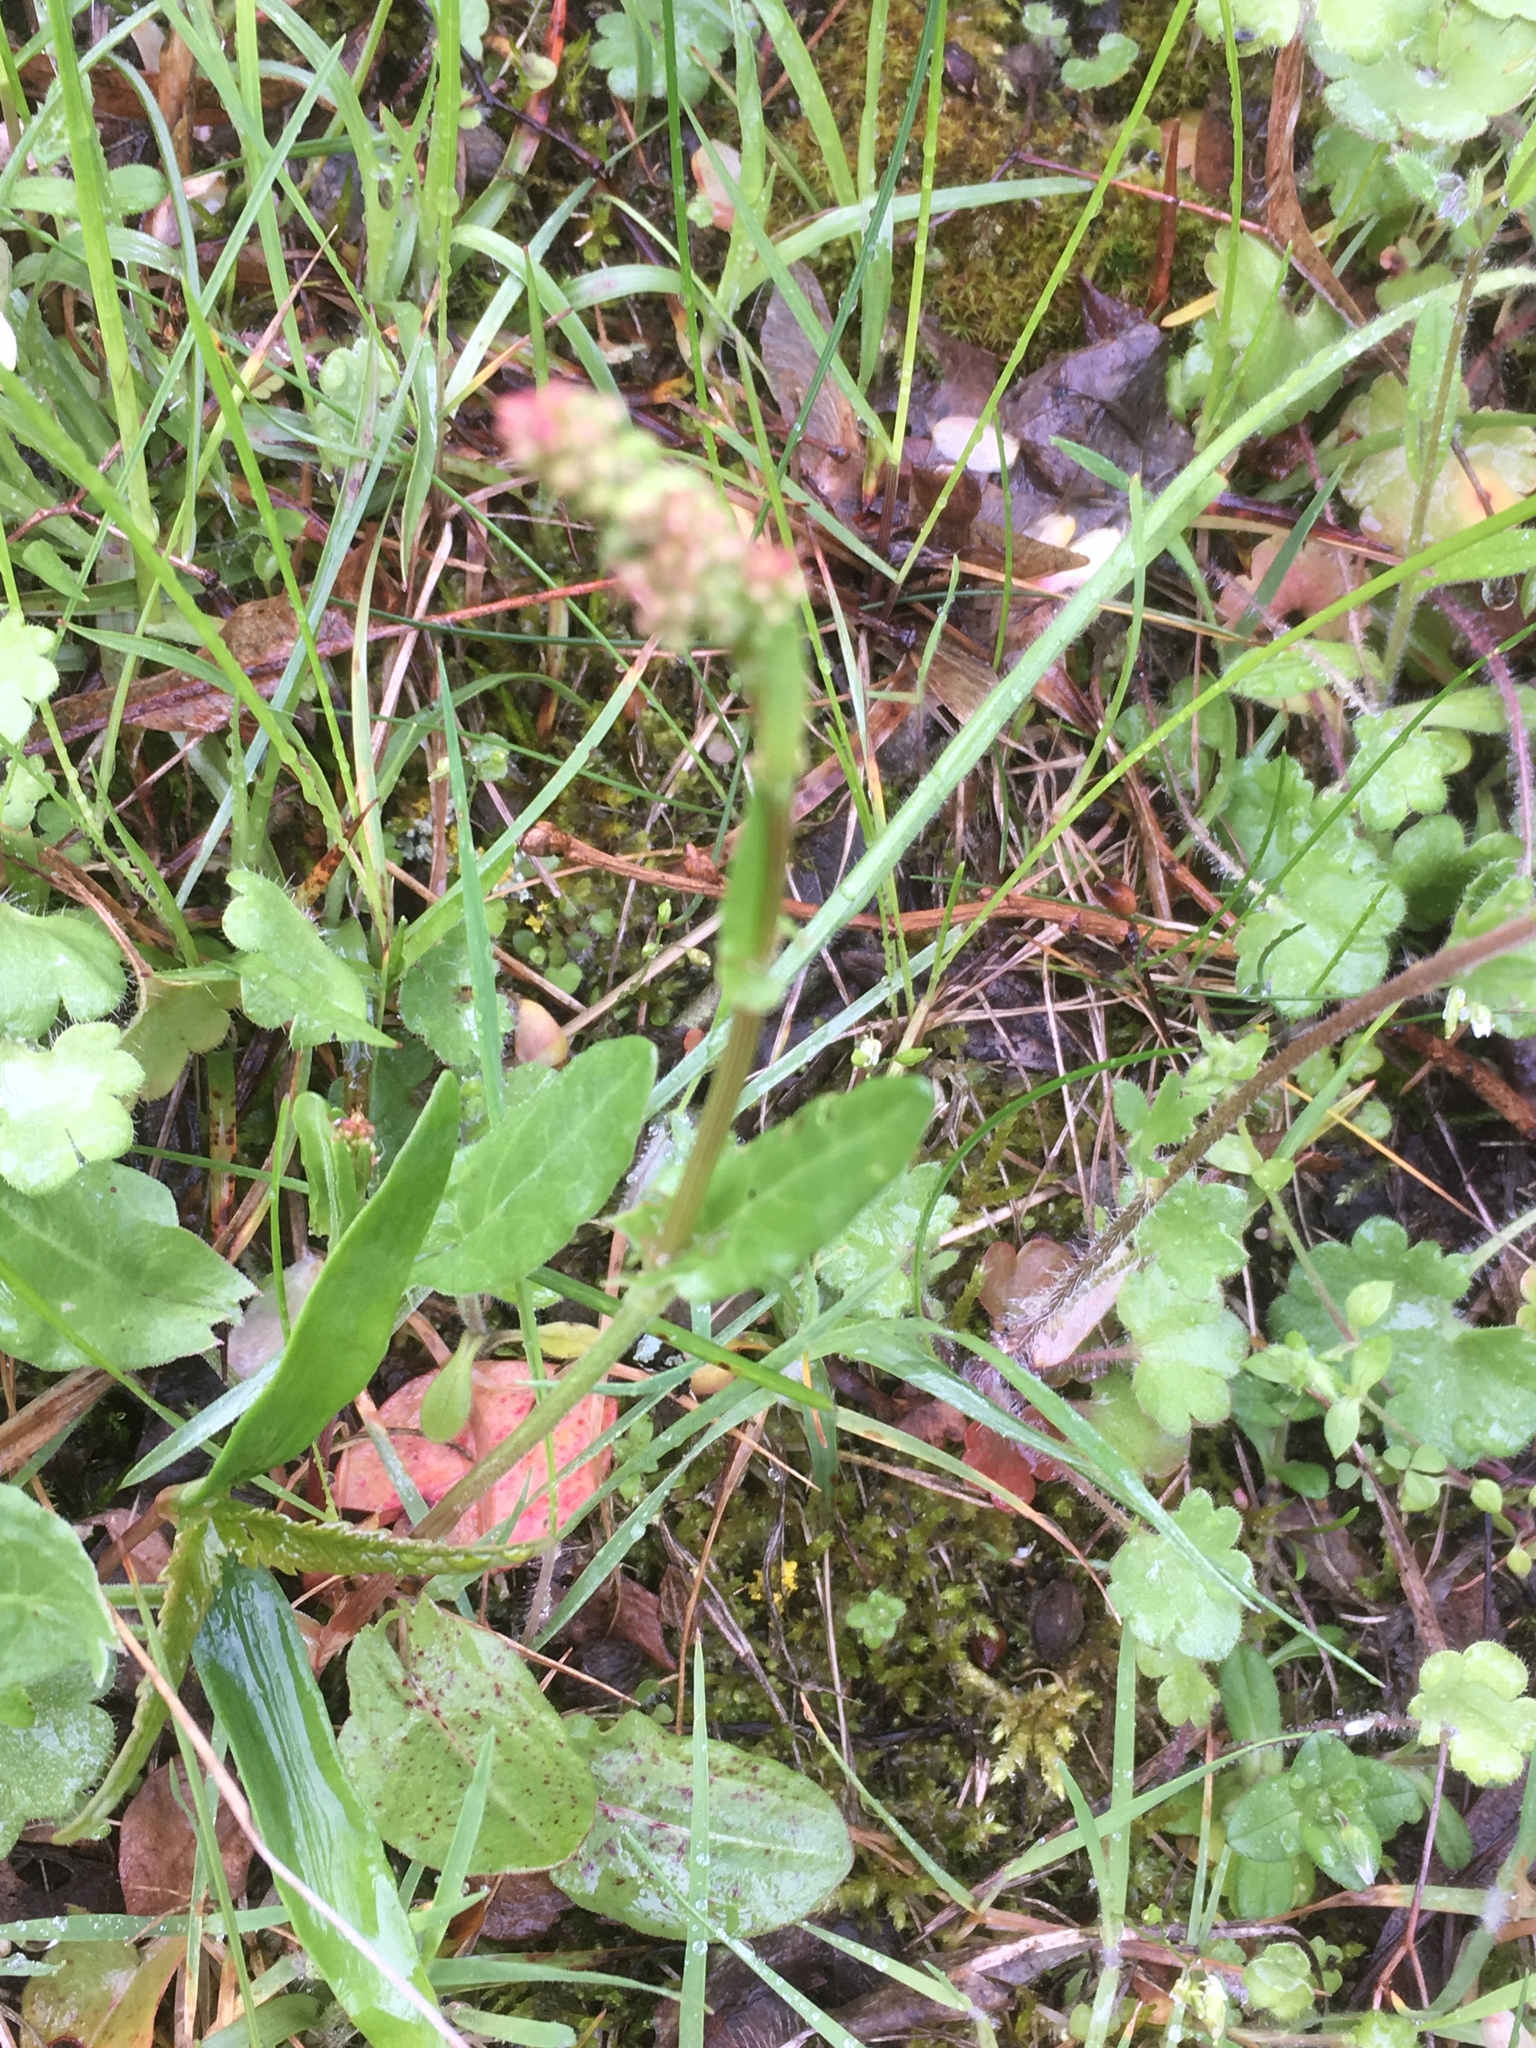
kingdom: Plantae
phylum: Tracheophyta
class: Magnoliopsida
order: Caryophyllales
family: Polygonaceae
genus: Rumex
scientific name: Rumex acetosa
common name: Garden sorrel
